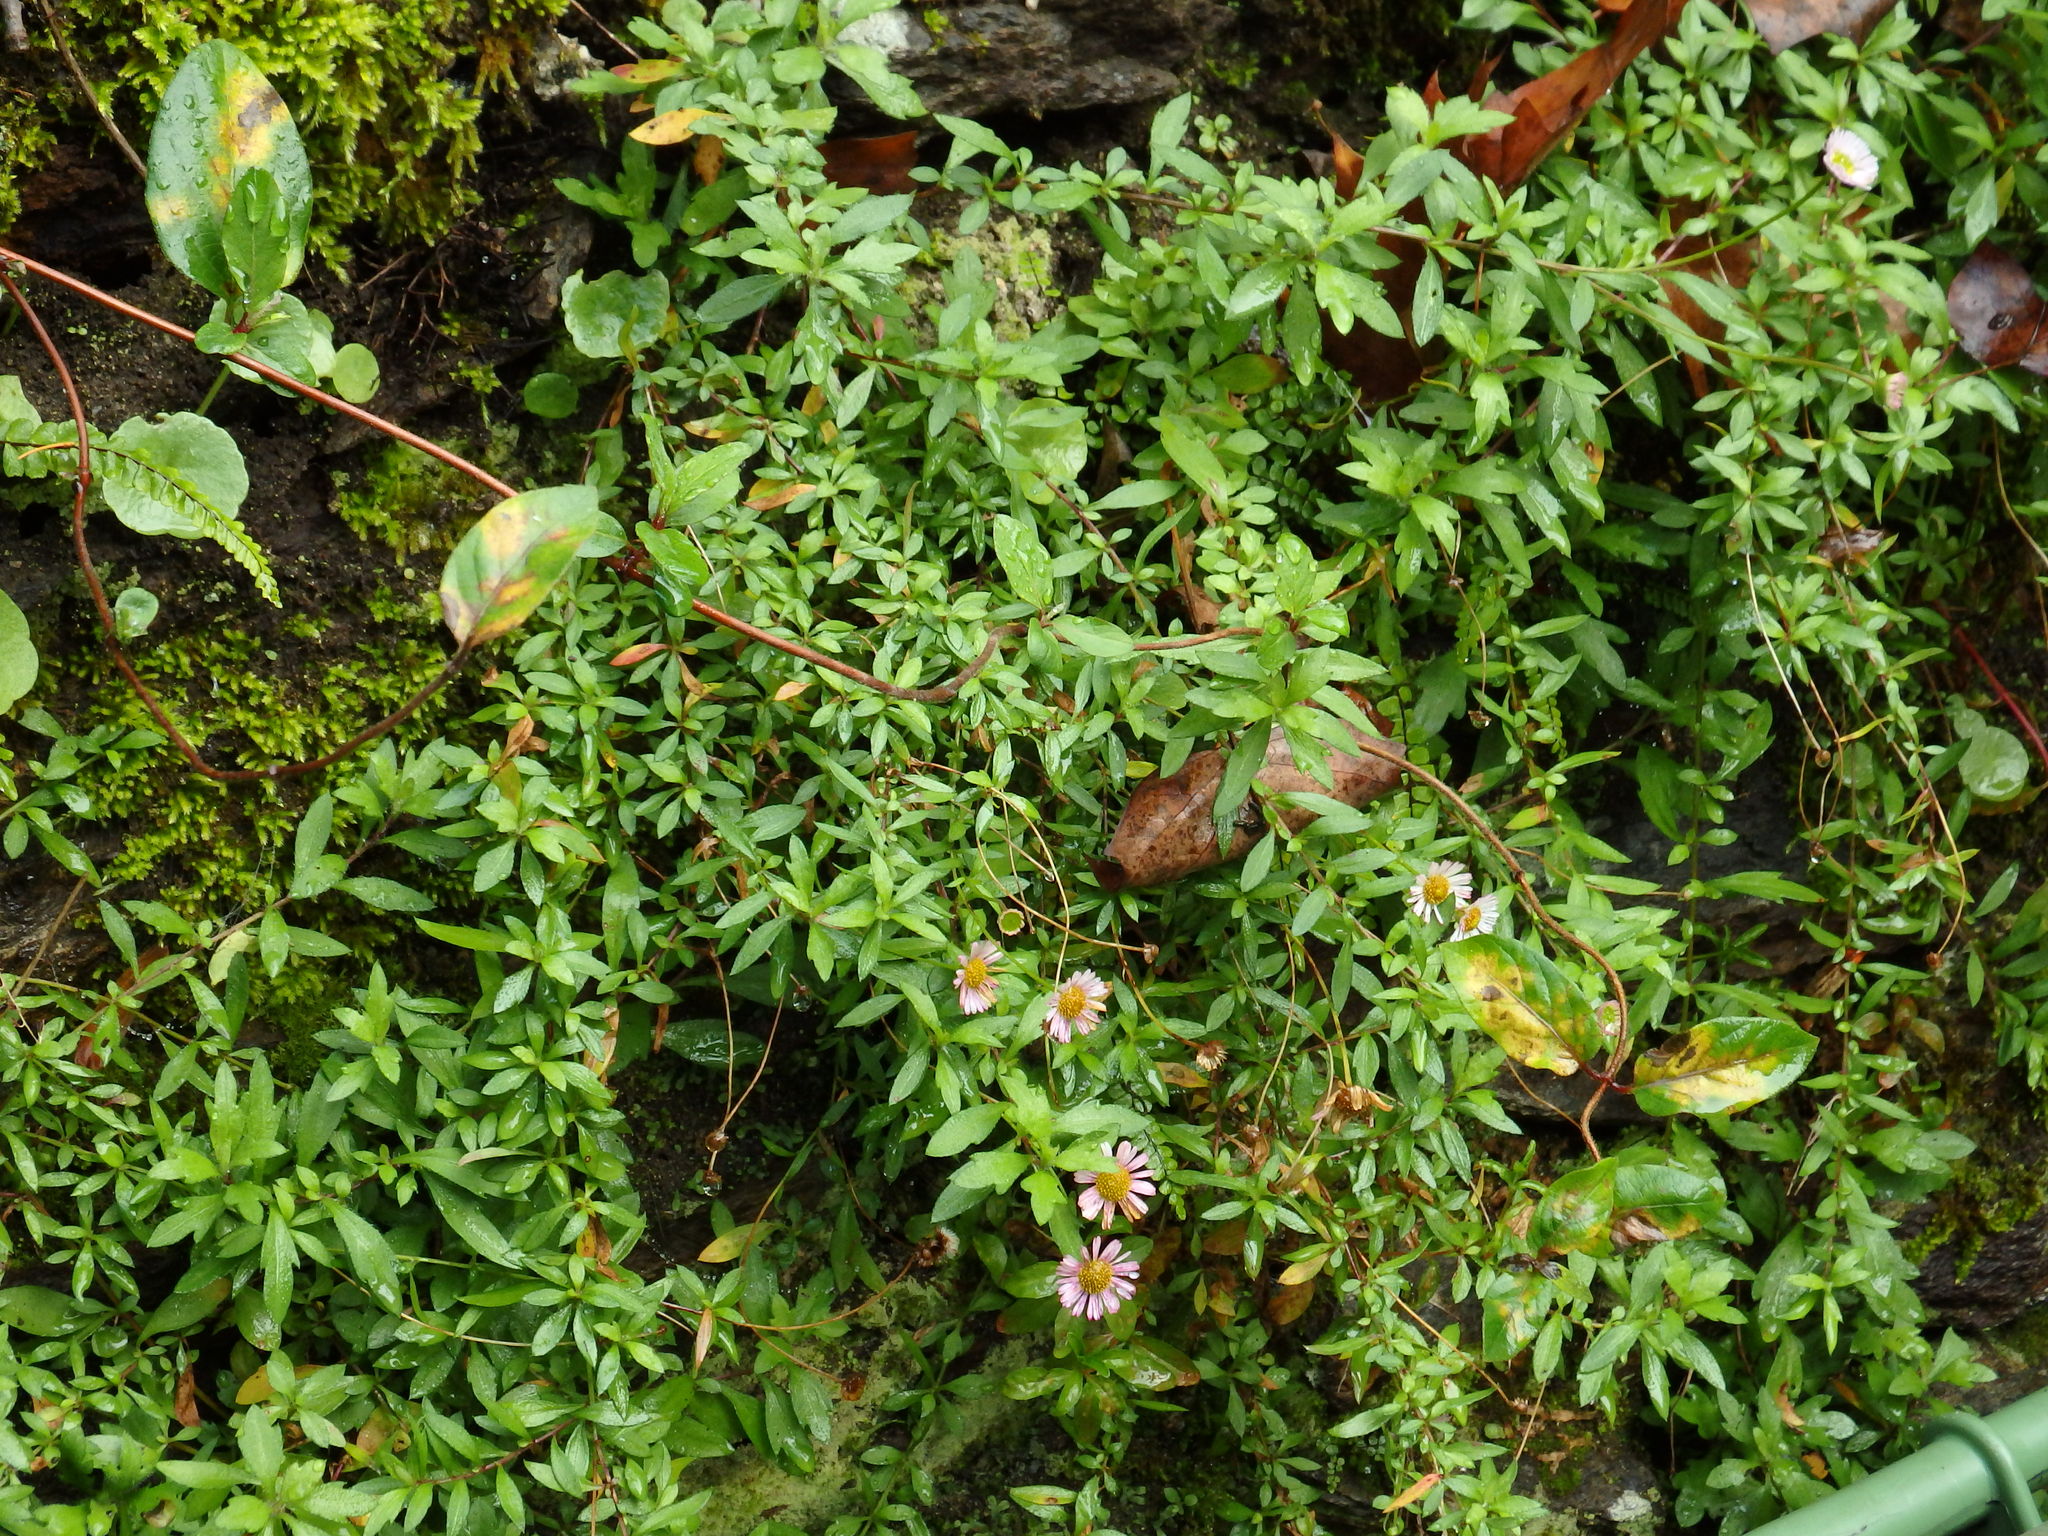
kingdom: Plantae
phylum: Tracheophyta
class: Magnoliopsida
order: Asterales
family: Asteraceae
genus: Erigeron
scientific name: Erigeron karvinskianus
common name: Mexican fleabane
